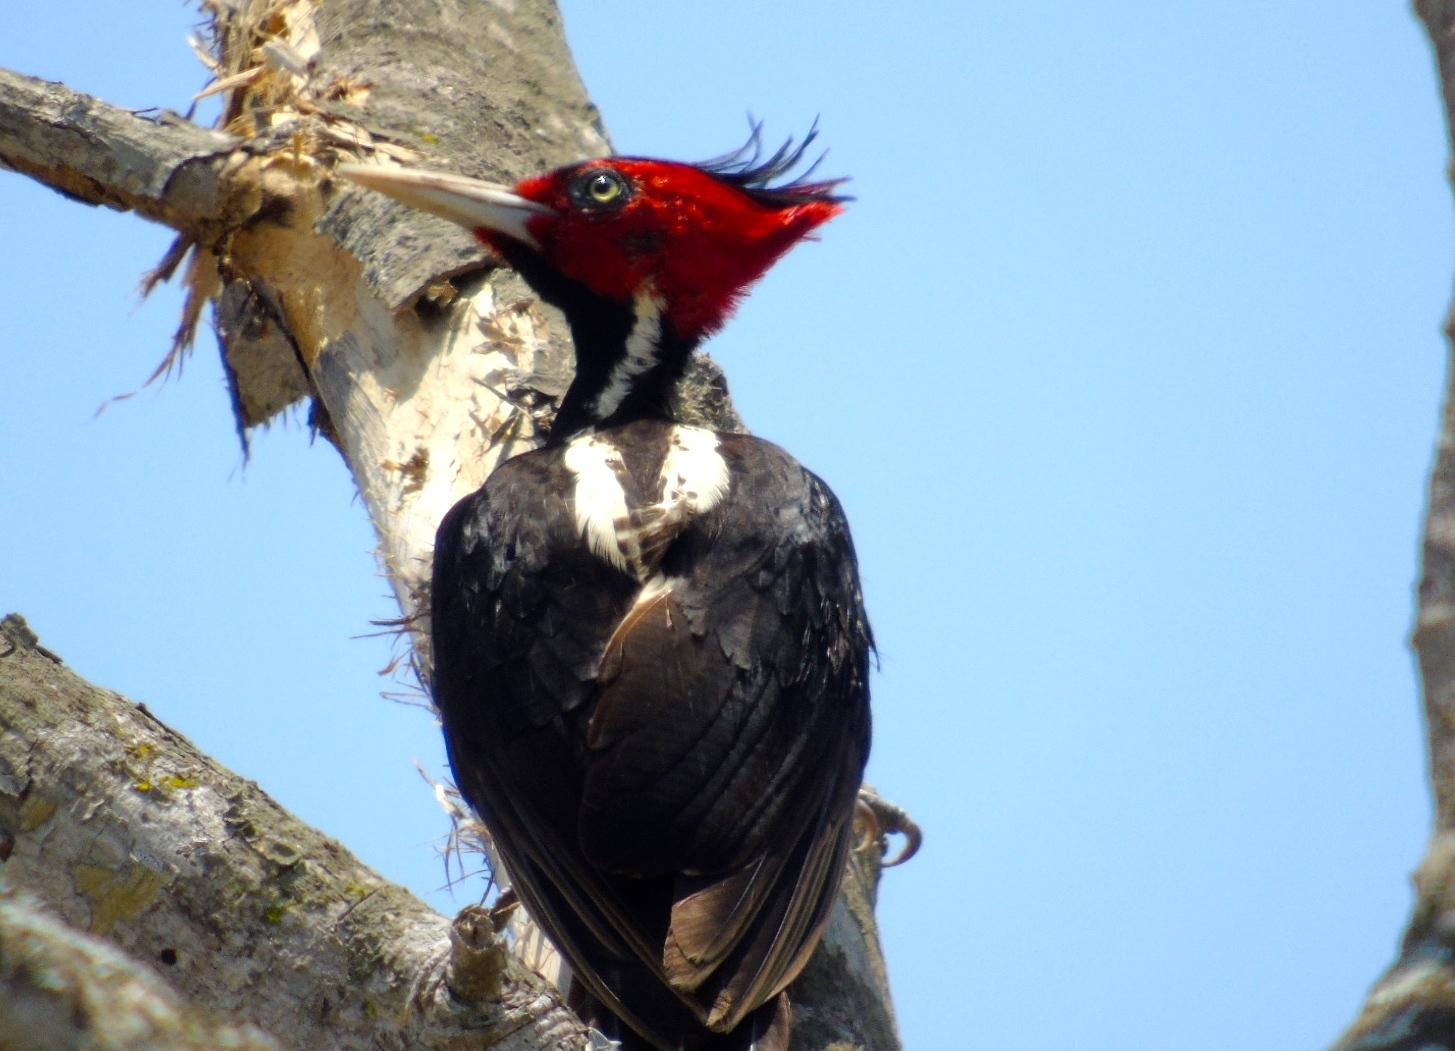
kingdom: Animalia
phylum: Chordata
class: Aves
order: Piciformes
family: Picidae
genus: Campephilus
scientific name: Campephilus guatemalensis
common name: Pale-billed woodpecker
